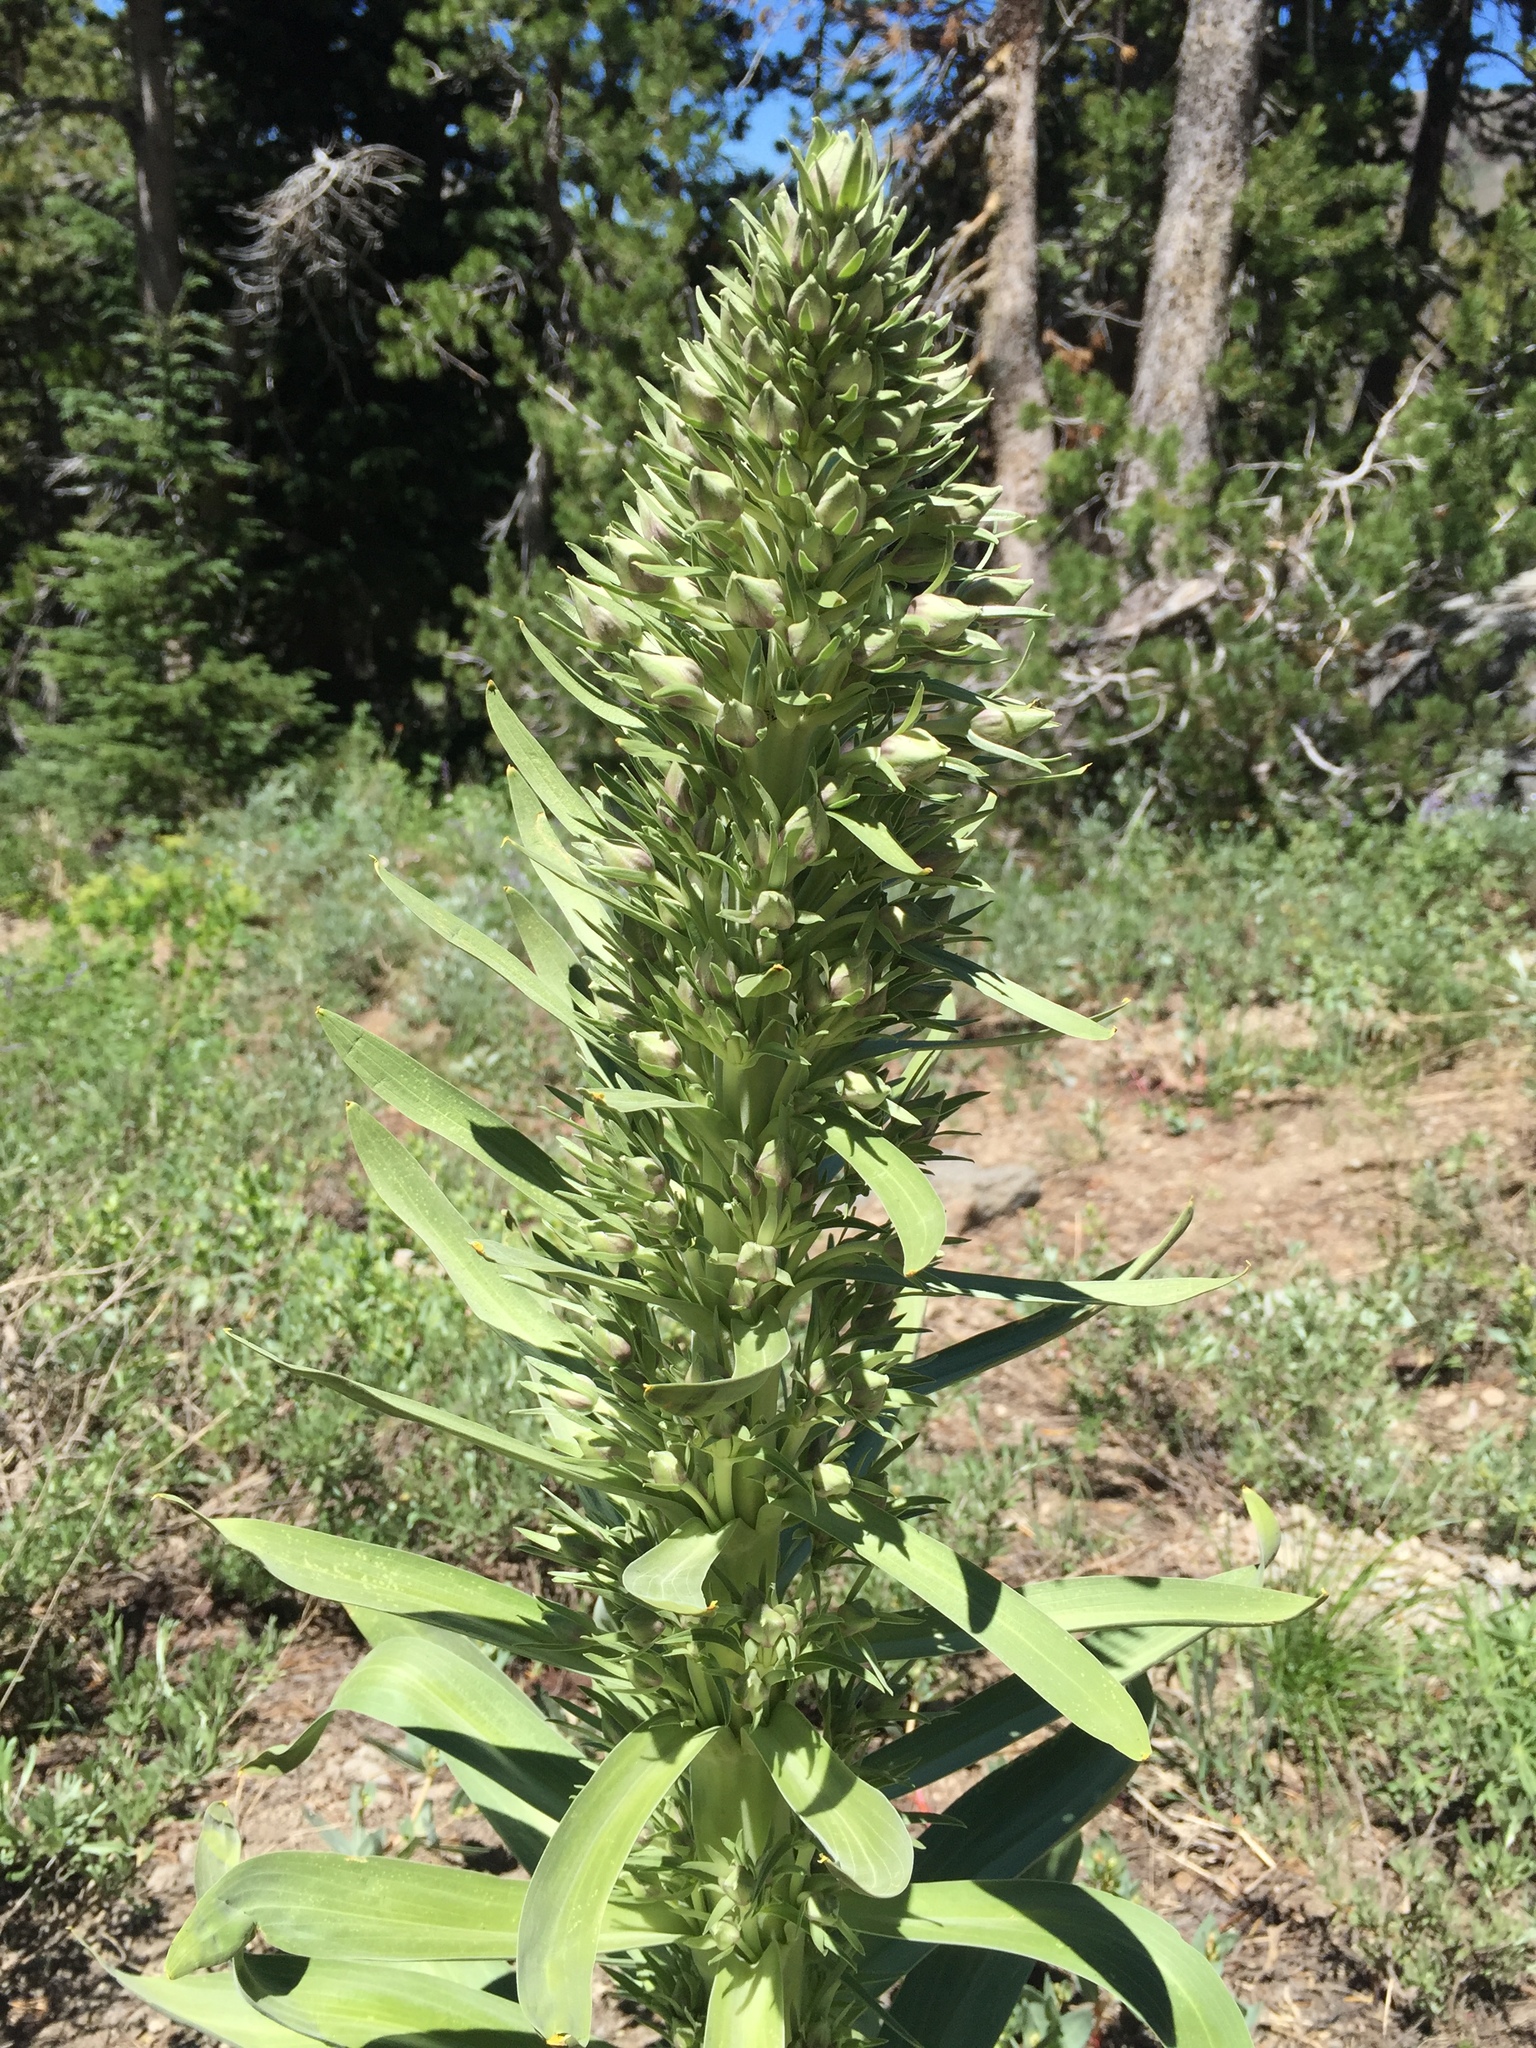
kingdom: Plantae
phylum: Tracheophyta
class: Magnoliopsida
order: Gentianales
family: Gentianaceae
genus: Frasera
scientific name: Frasera speciosa
